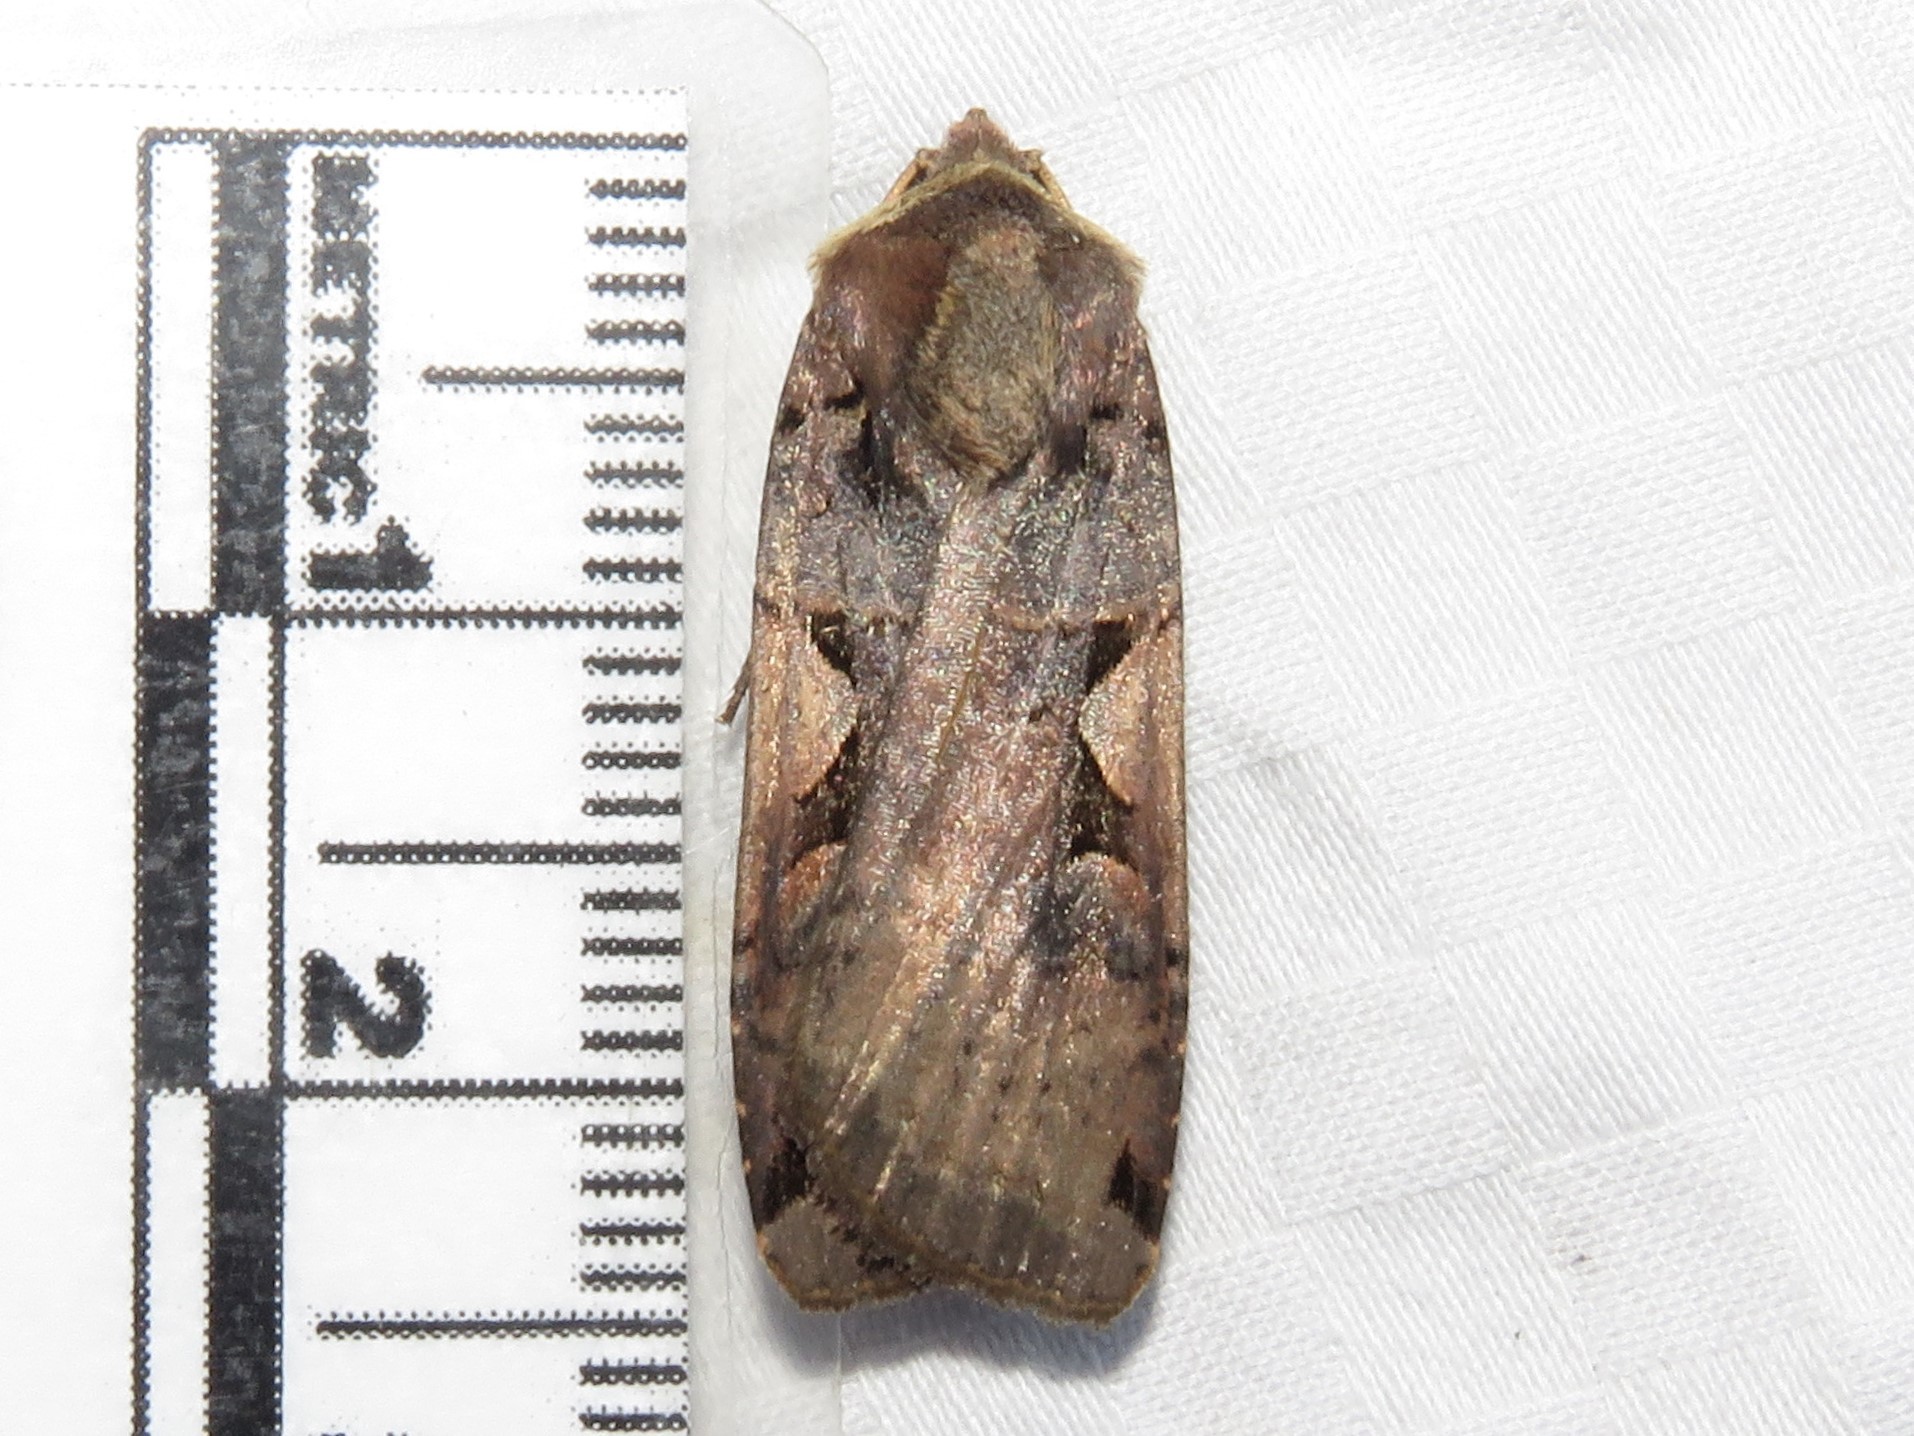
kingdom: Animalia
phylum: Arthropoda
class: Insecta
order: Lepidoptera
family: Noctuidae
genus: Xestia
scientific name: Xestia
